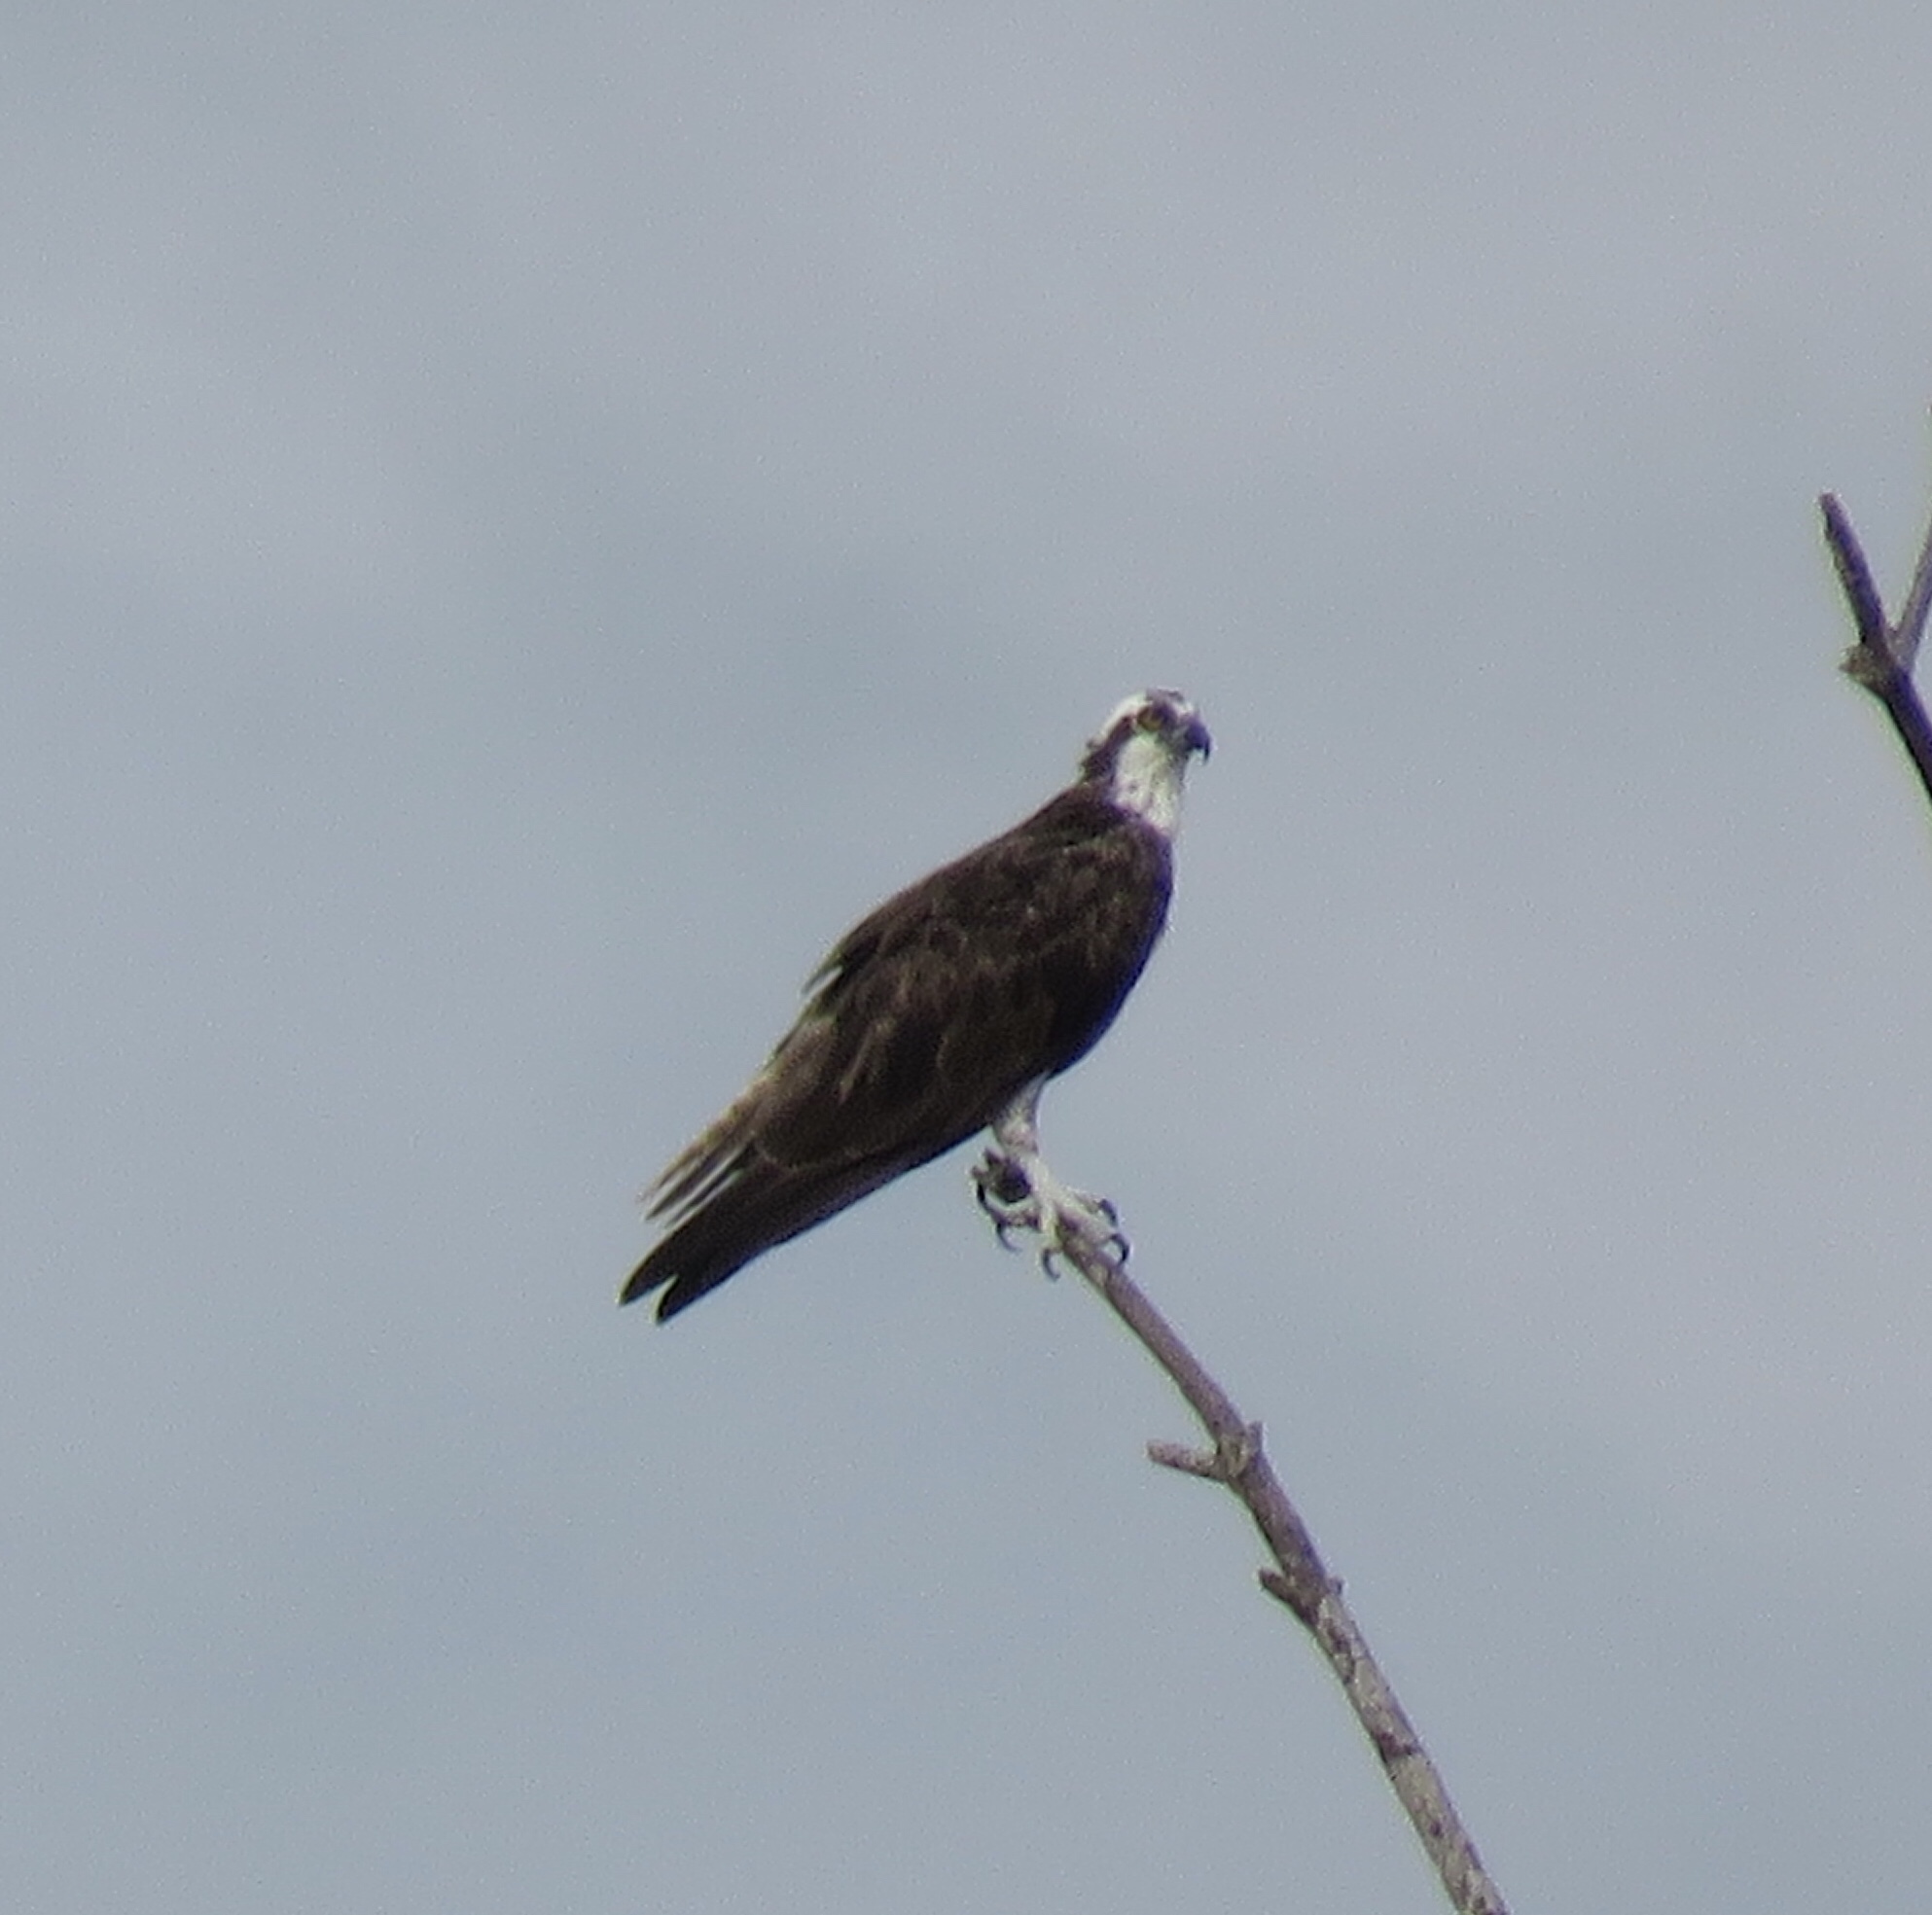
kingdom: Animalia
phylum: Chordata
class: Aves
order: Accipitriformes
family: Pandionidae
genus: Pandion
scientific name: Pandion haliaetus
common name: Osprey
